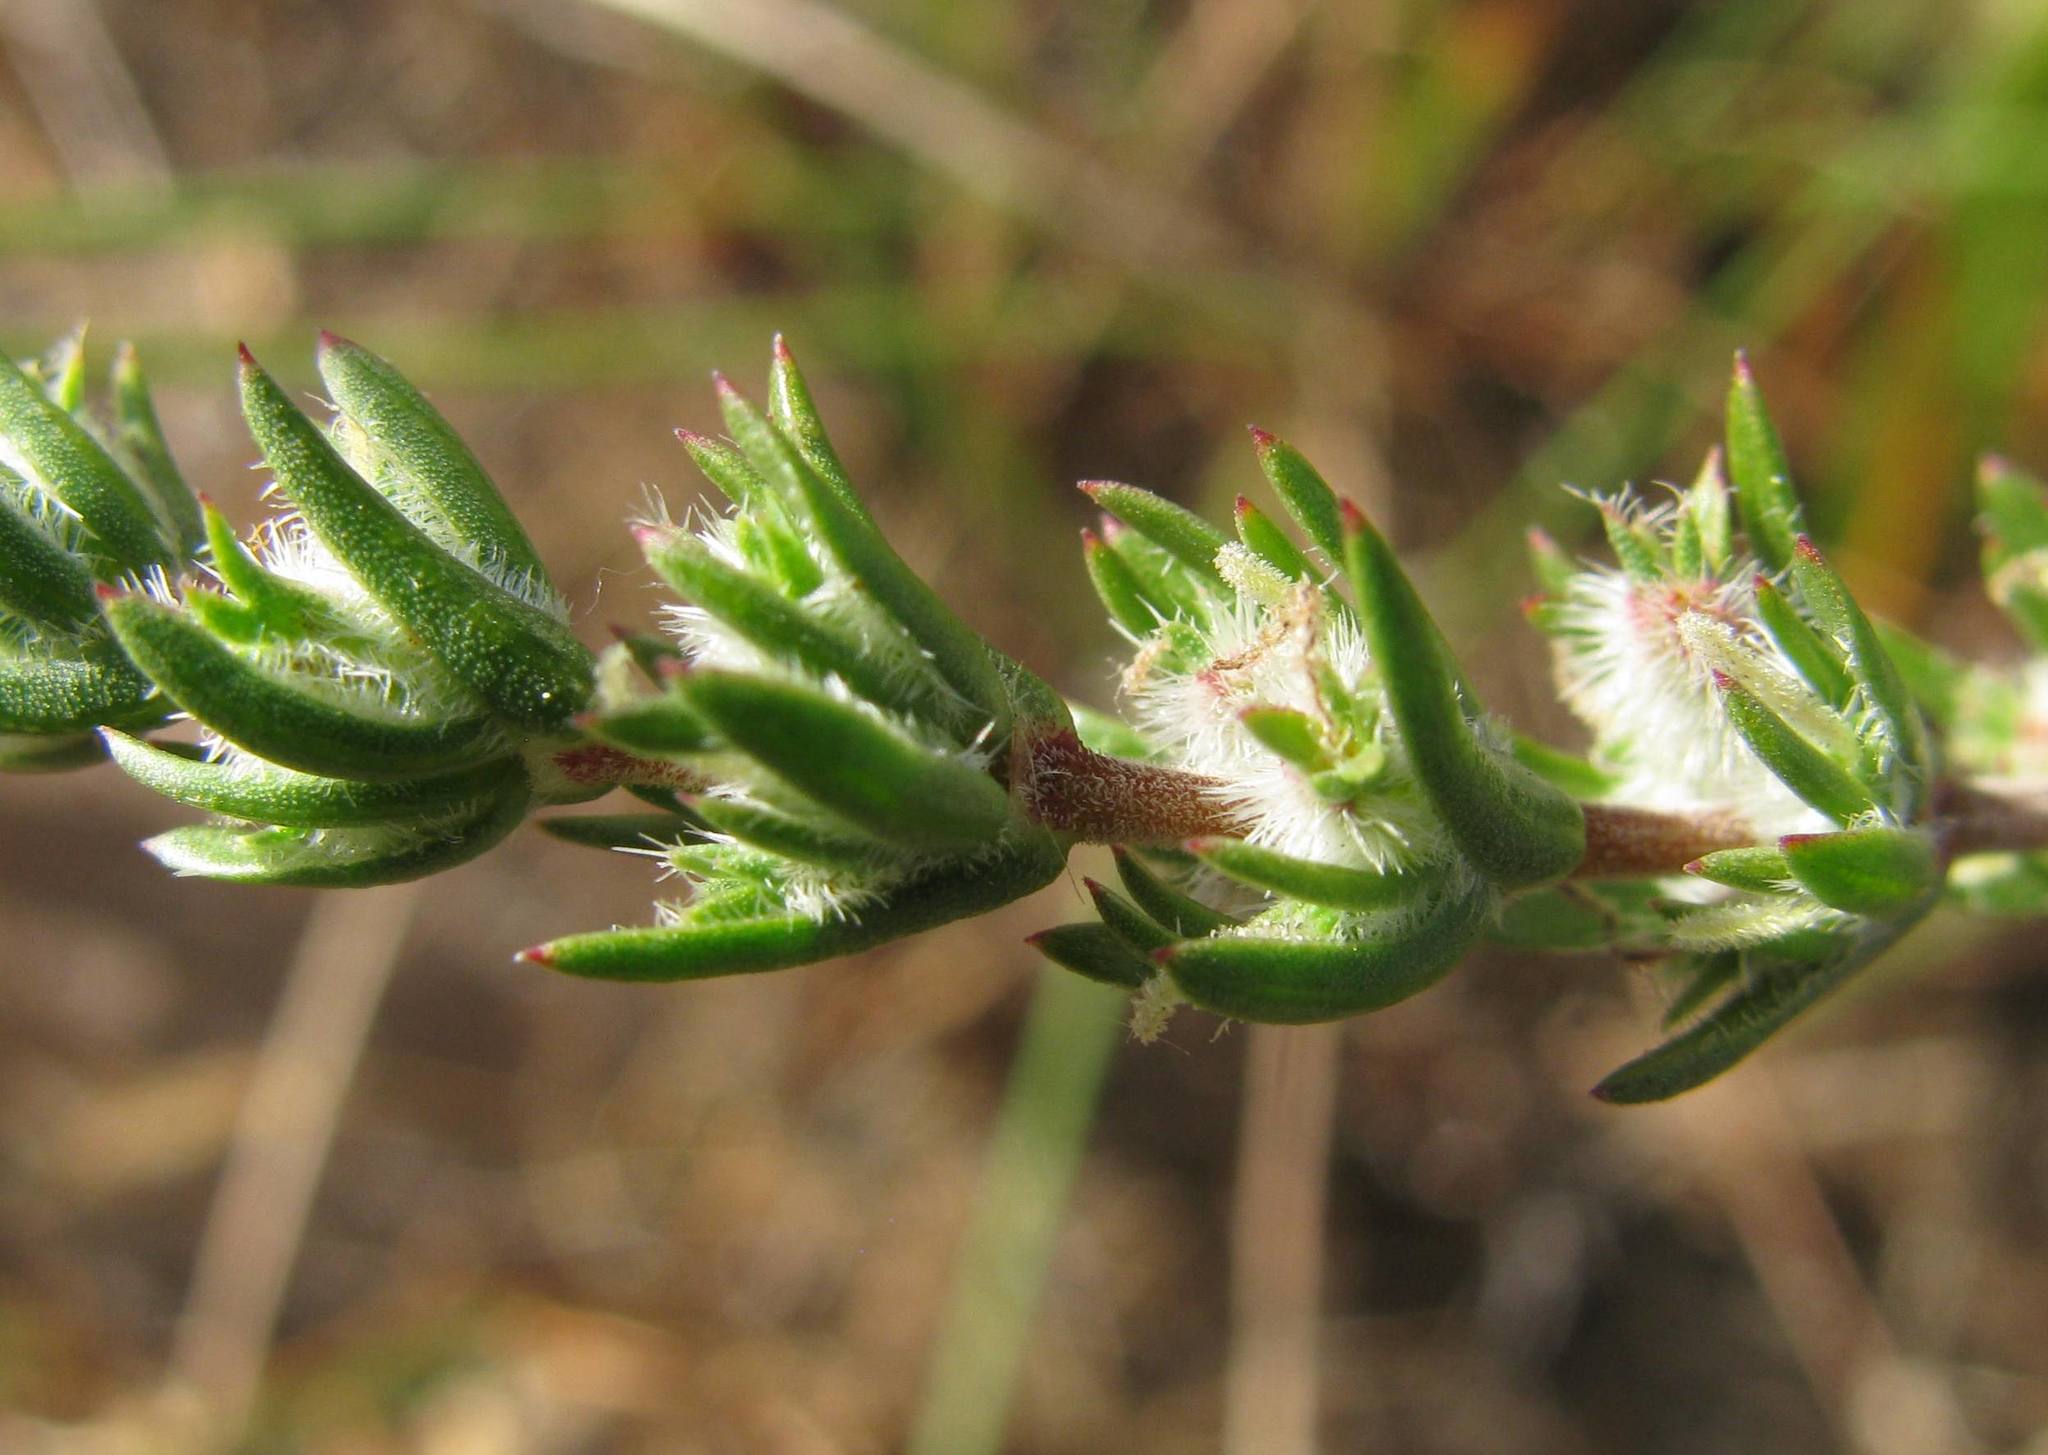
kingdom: Plantae
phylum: Tracheophyta
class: Magnoliopsida
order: Gentianales
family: Rubiaceae
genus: Anthospermum
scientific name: Anthospermum ericifolium
